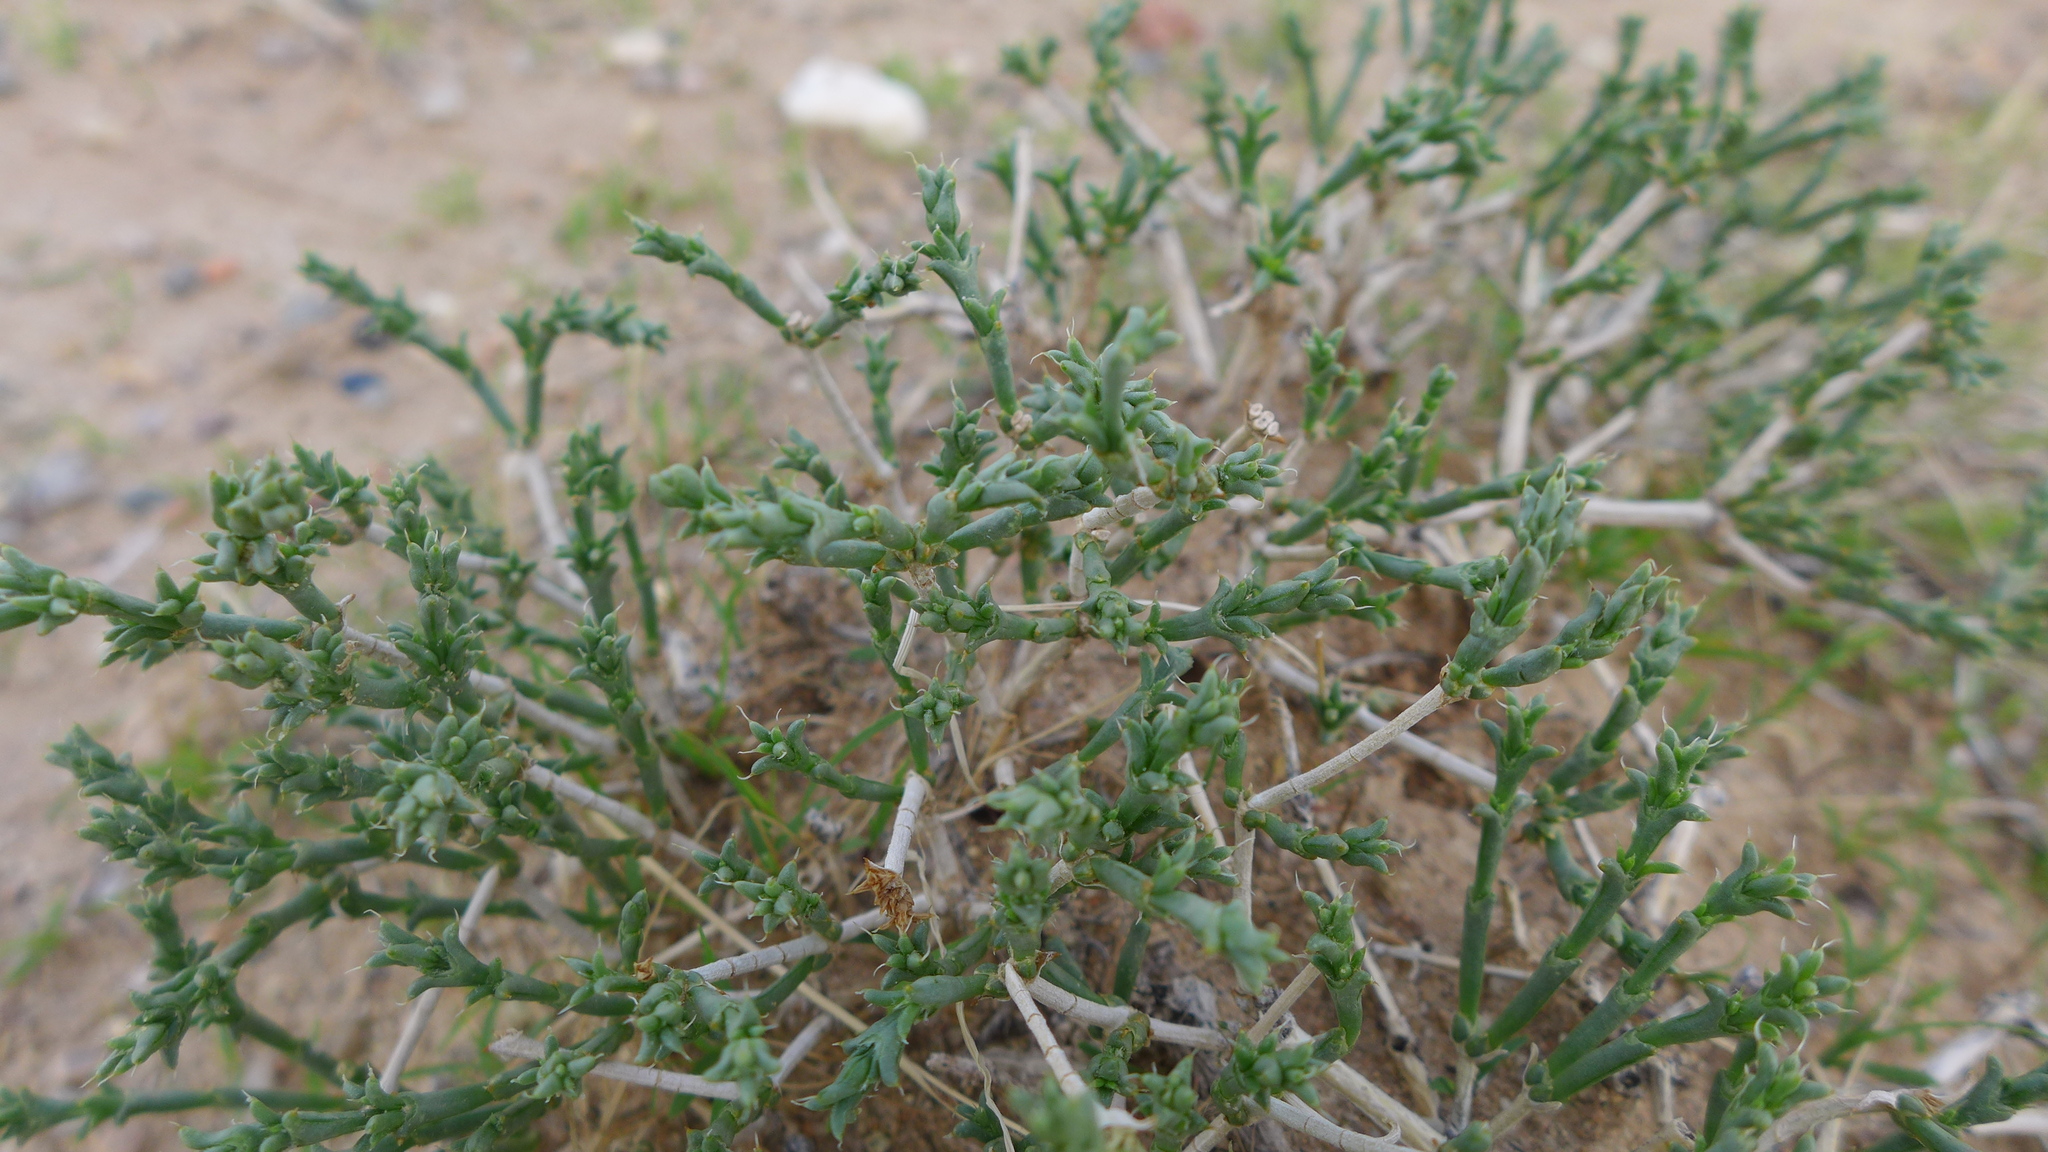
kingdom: Plantae
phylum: Tracheophyta
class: Magnoliopsida
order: Caryophyllales
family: Amaranthaceae
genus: Anabasis
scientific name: Anabasis brevifolia
